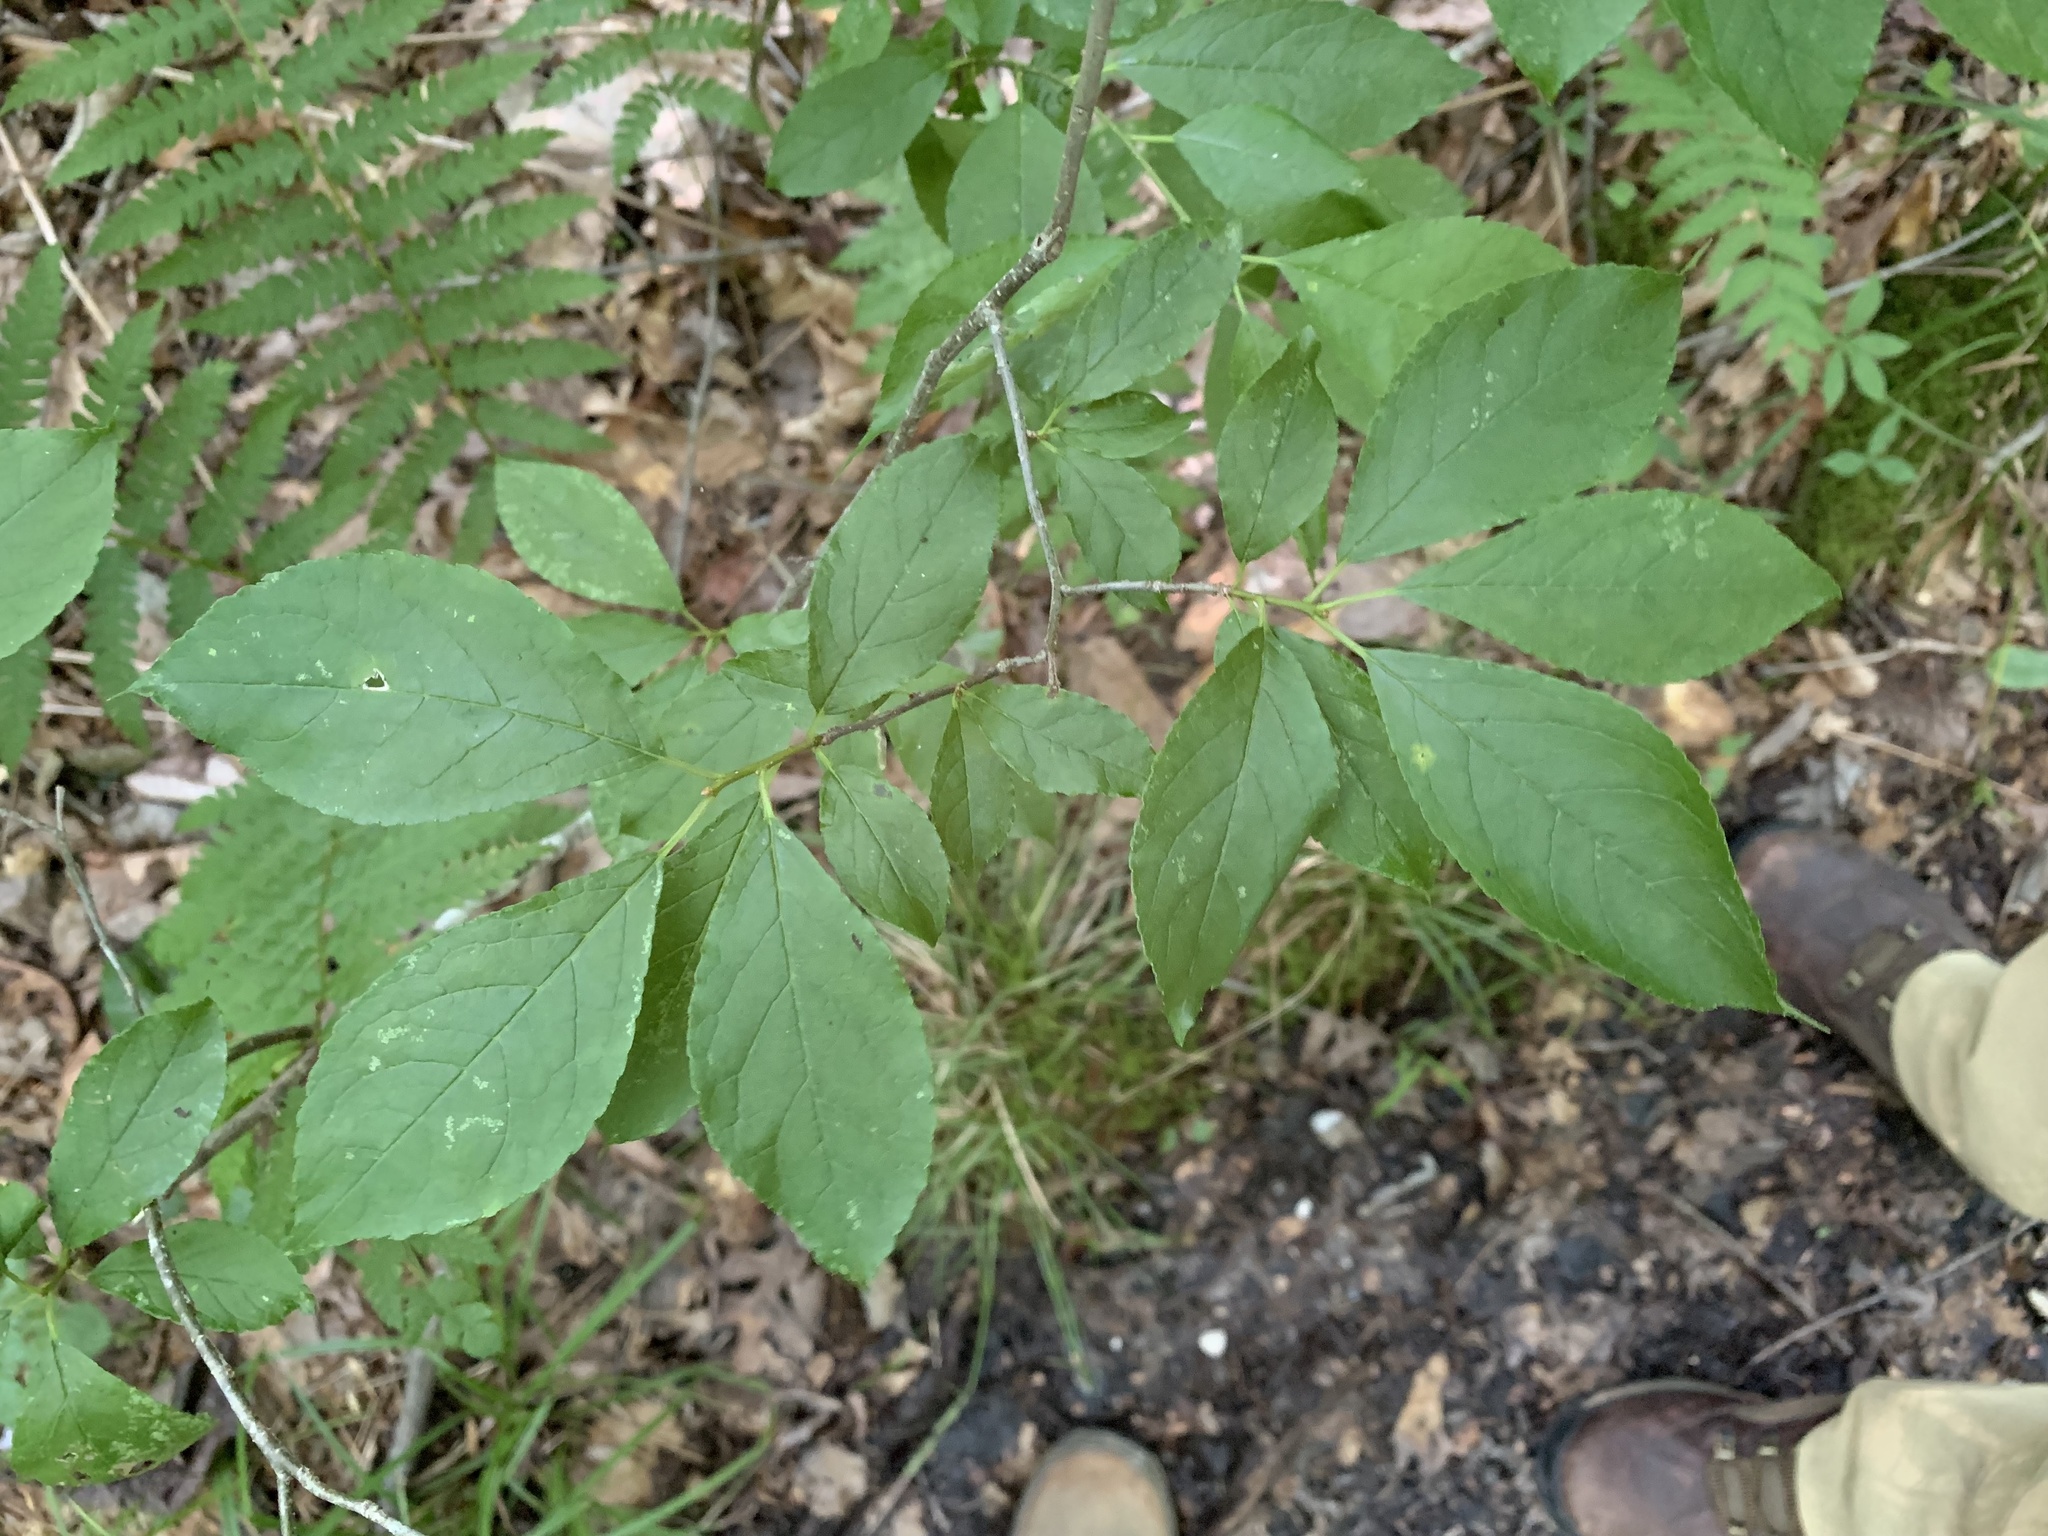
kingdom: Plantae
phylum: Tracheophyta
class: Magnoliopsida
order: Laurales
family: Lauraceae
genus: Lindera
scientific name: Lindera benzoin
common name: Spicebush
